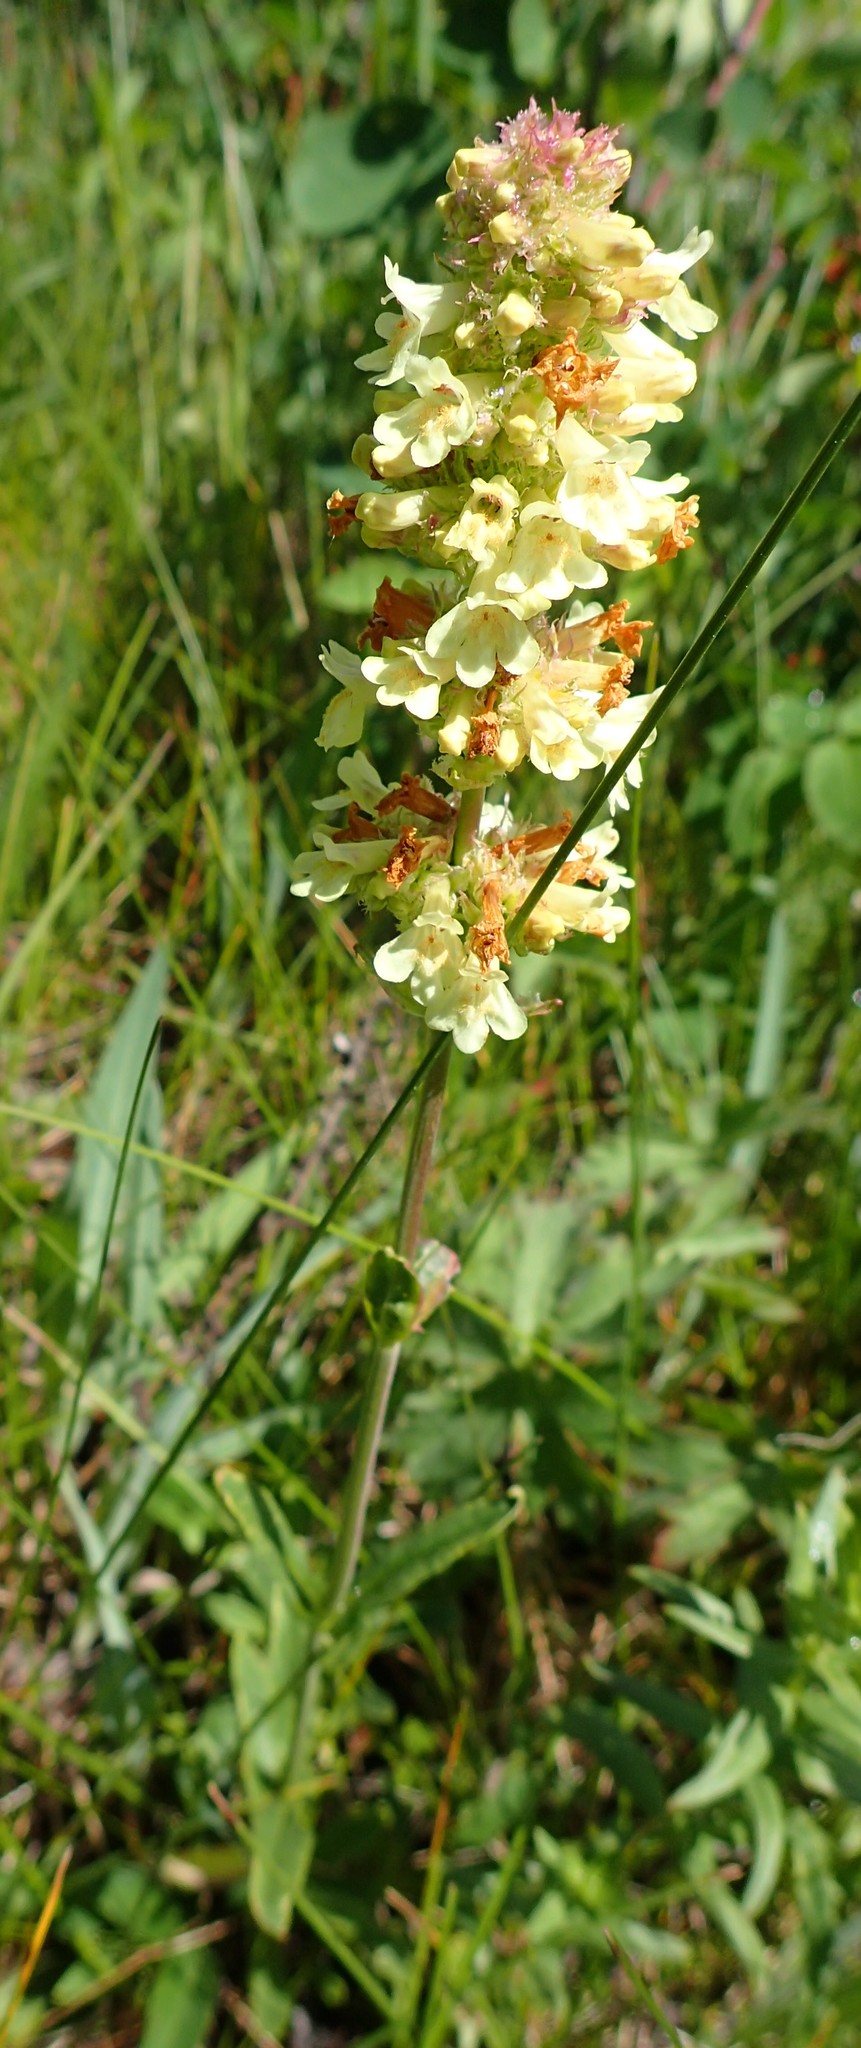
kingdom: Plantae
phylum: Tracheophyta
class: Magnoliopsida
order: Lamiales
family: Plantaginaceae
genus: Penstemon
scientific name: Penstemon confertus
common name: Lesser yellow beardtongue
